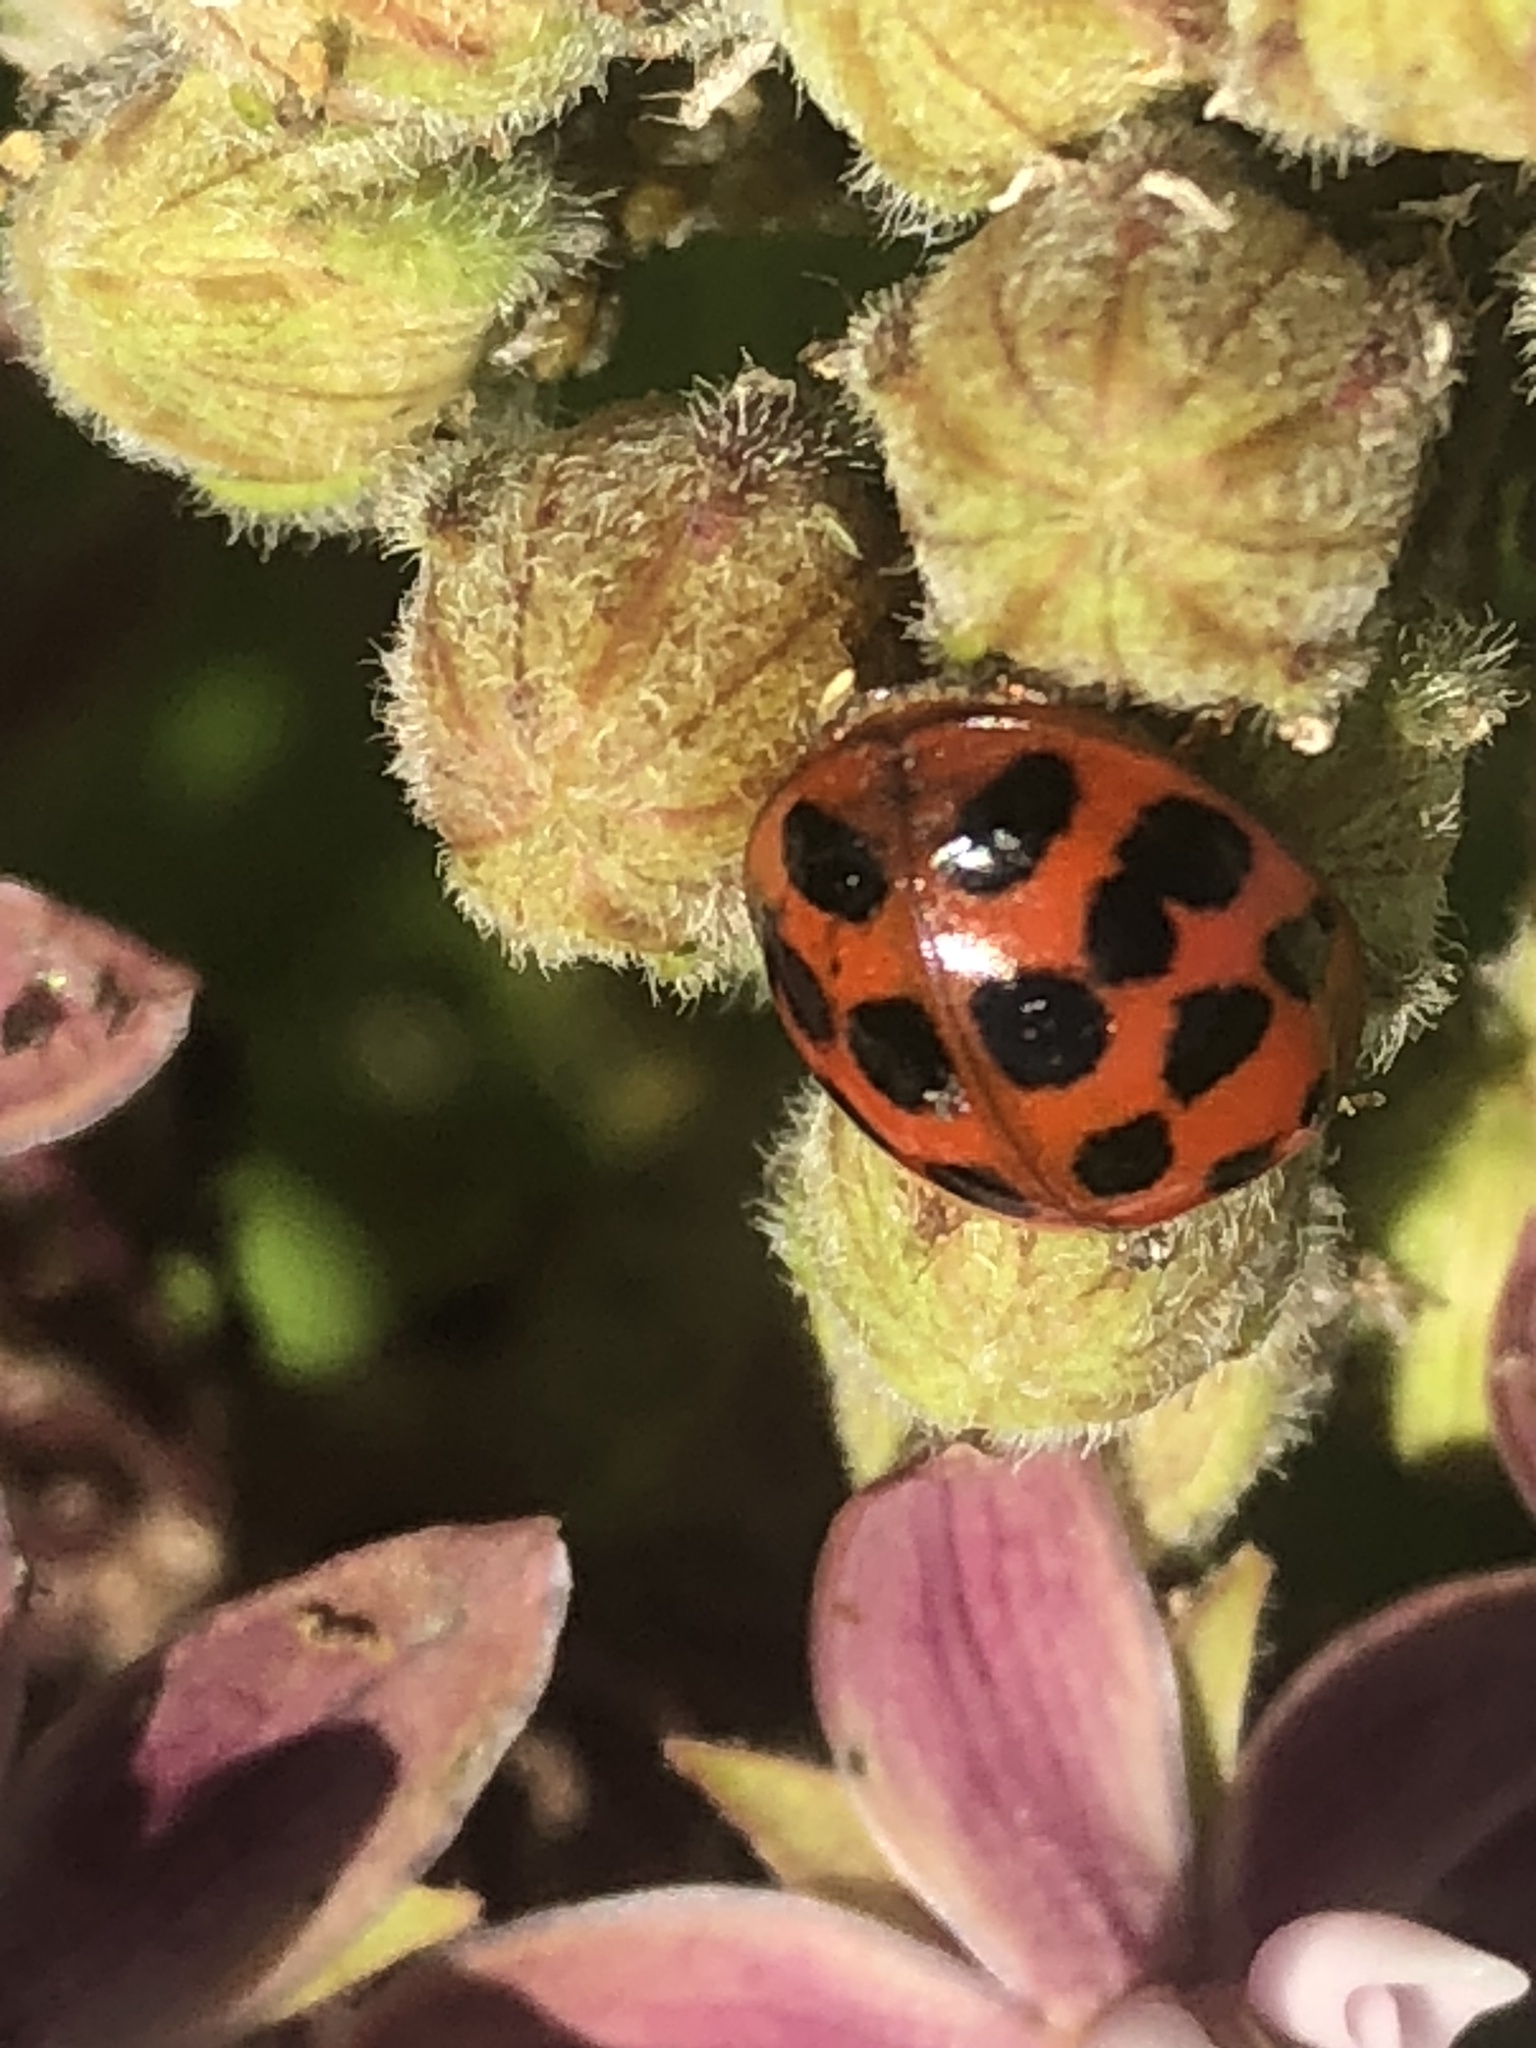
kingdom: Animalia
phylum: Arthropoda
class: Insecta
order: Coleoptera
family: Coccinellidae
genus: Harmonia
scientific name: Harmonia axyridis
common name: Harlequin ladybird
